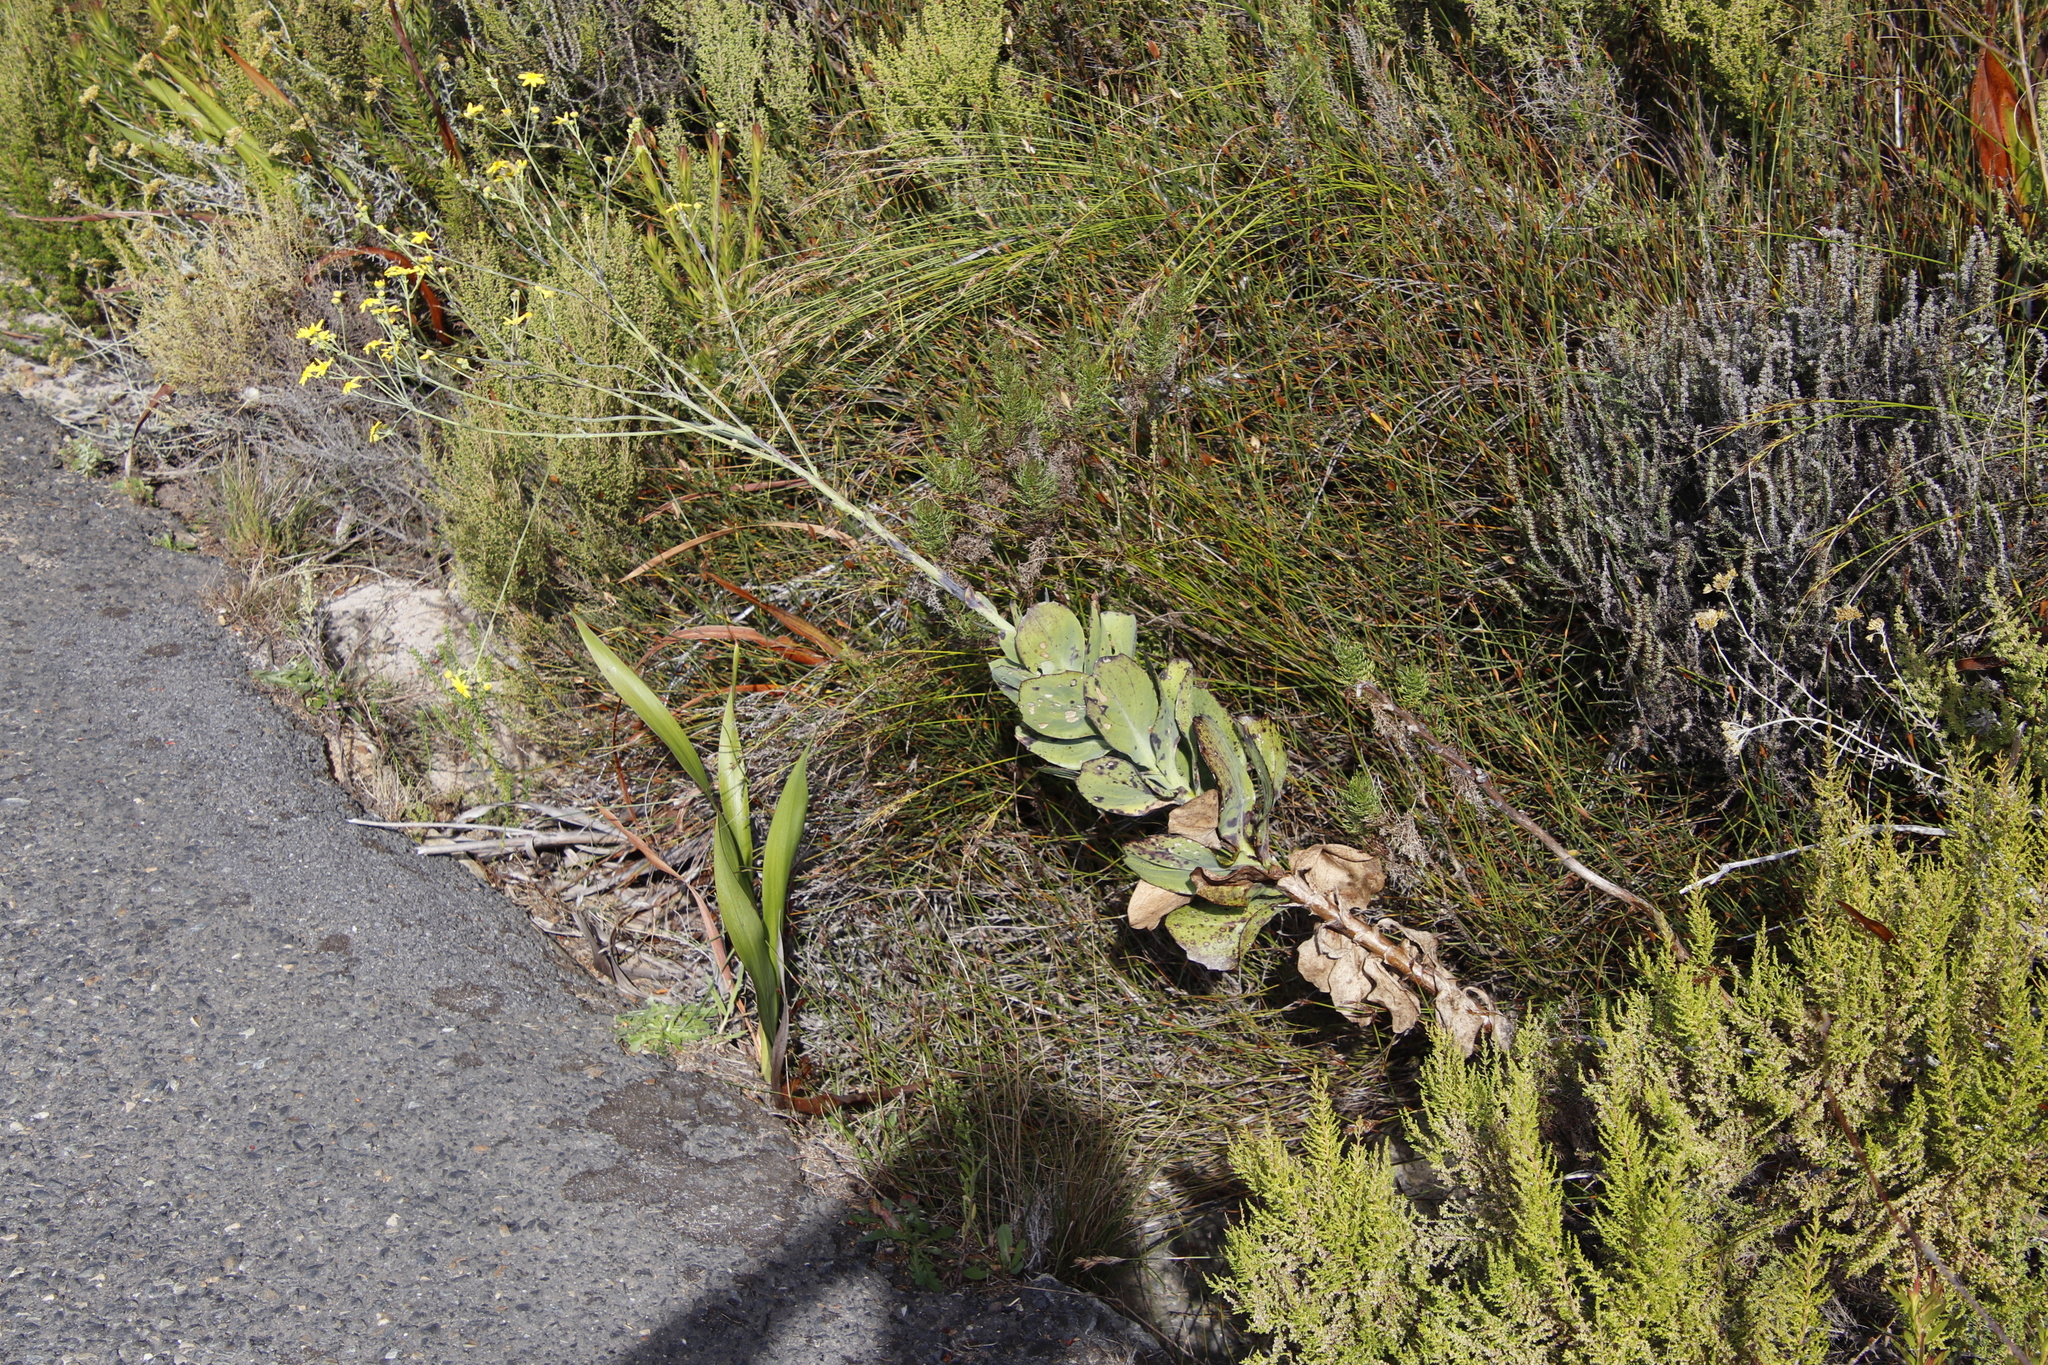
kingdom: Plantae
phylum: Tracheophyta
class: Magnoliopsida
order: Asterales
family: Asteraceae
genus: Othonna
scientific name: Othonna quinquedentata
